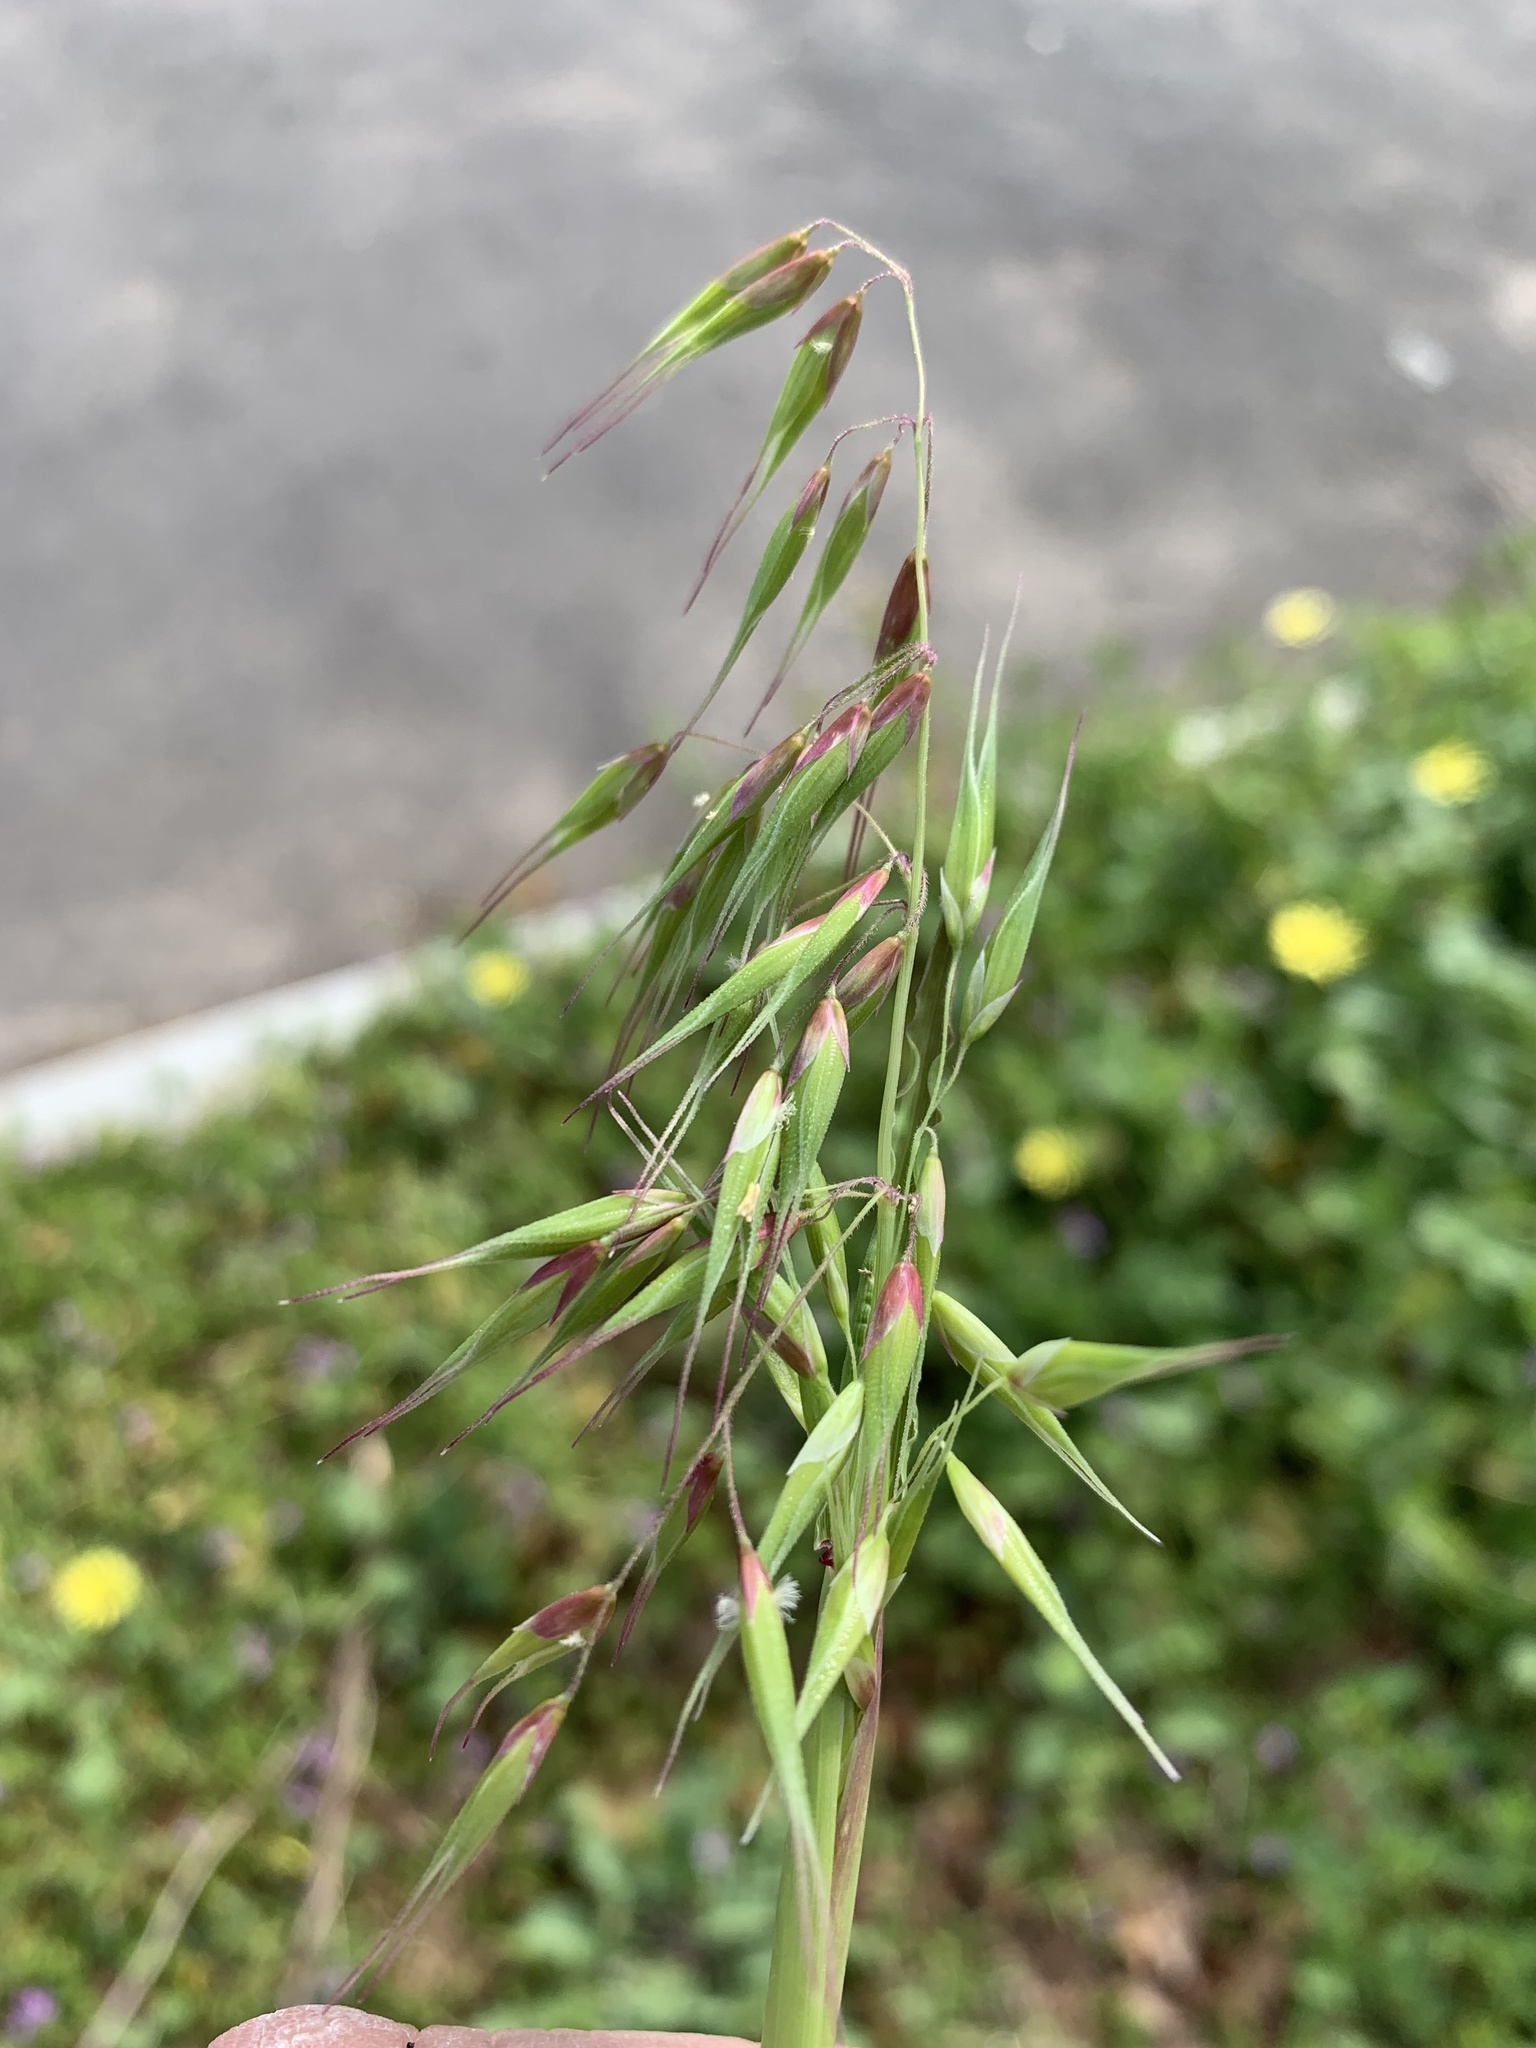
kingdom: Plantae
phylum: Tracheophyta
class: Liliopsida
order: Poales
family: Poaceae
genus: Ehrharta
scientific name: Ehrharta longiflora
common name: Longflowered veldtgrass
